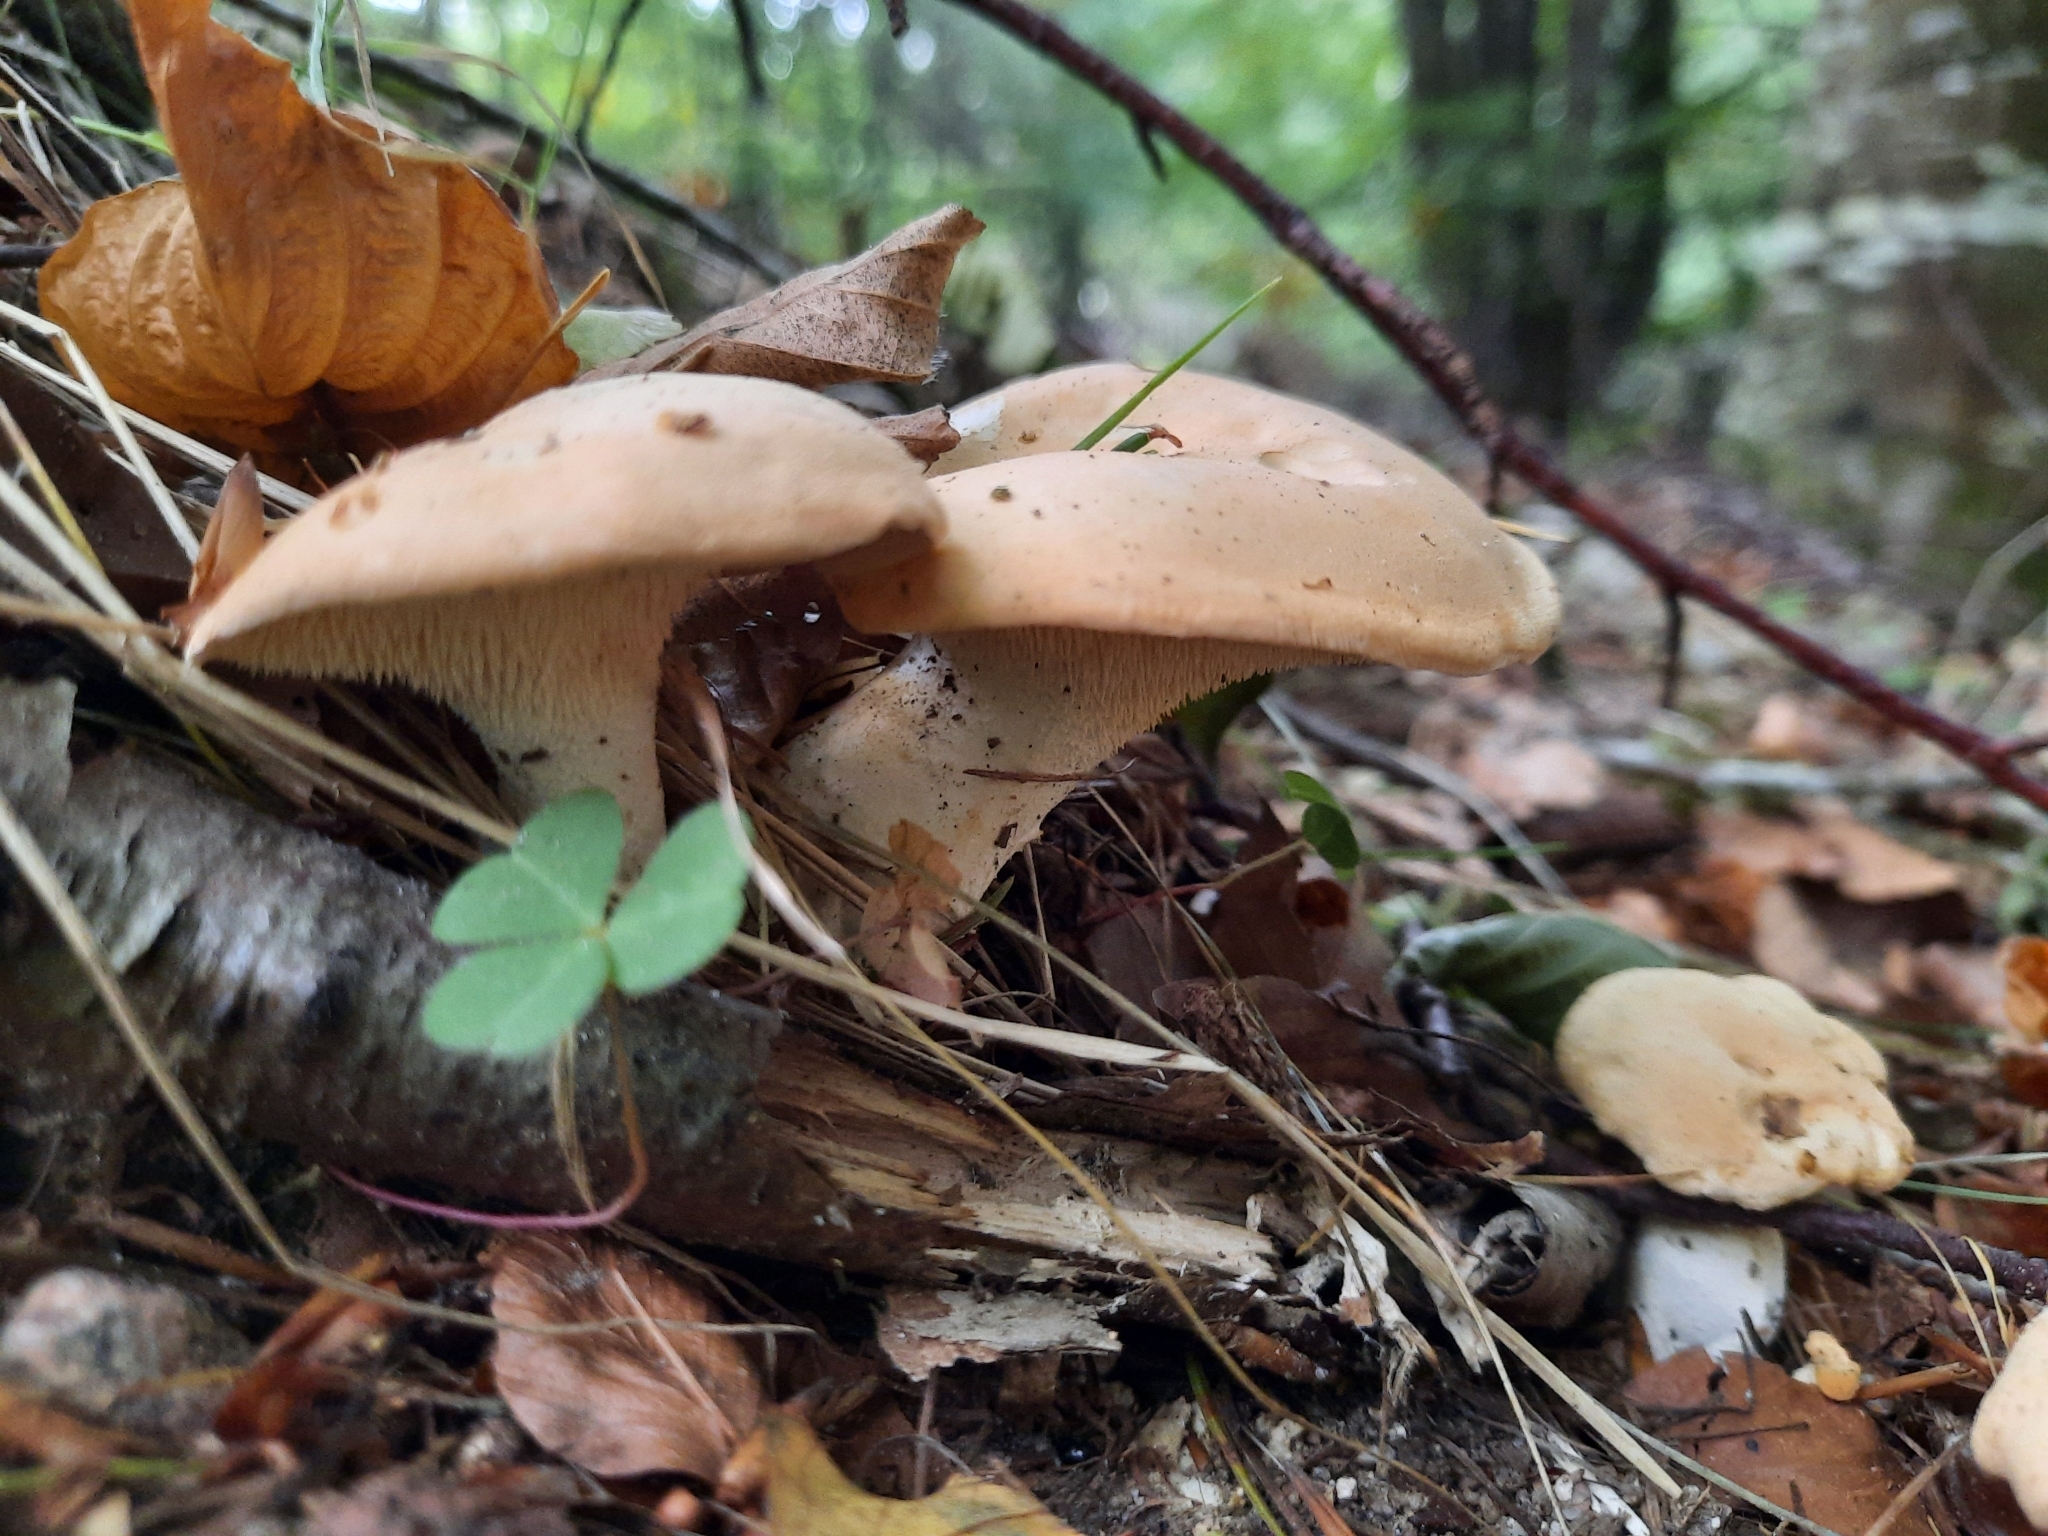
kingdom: Fungi
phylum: Basidiomycota
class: Agaricomycetes
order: Cantharellales
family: Hydnaceae
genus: Hydnum
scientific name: Hydnum repandum
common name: Wood hedgehog
